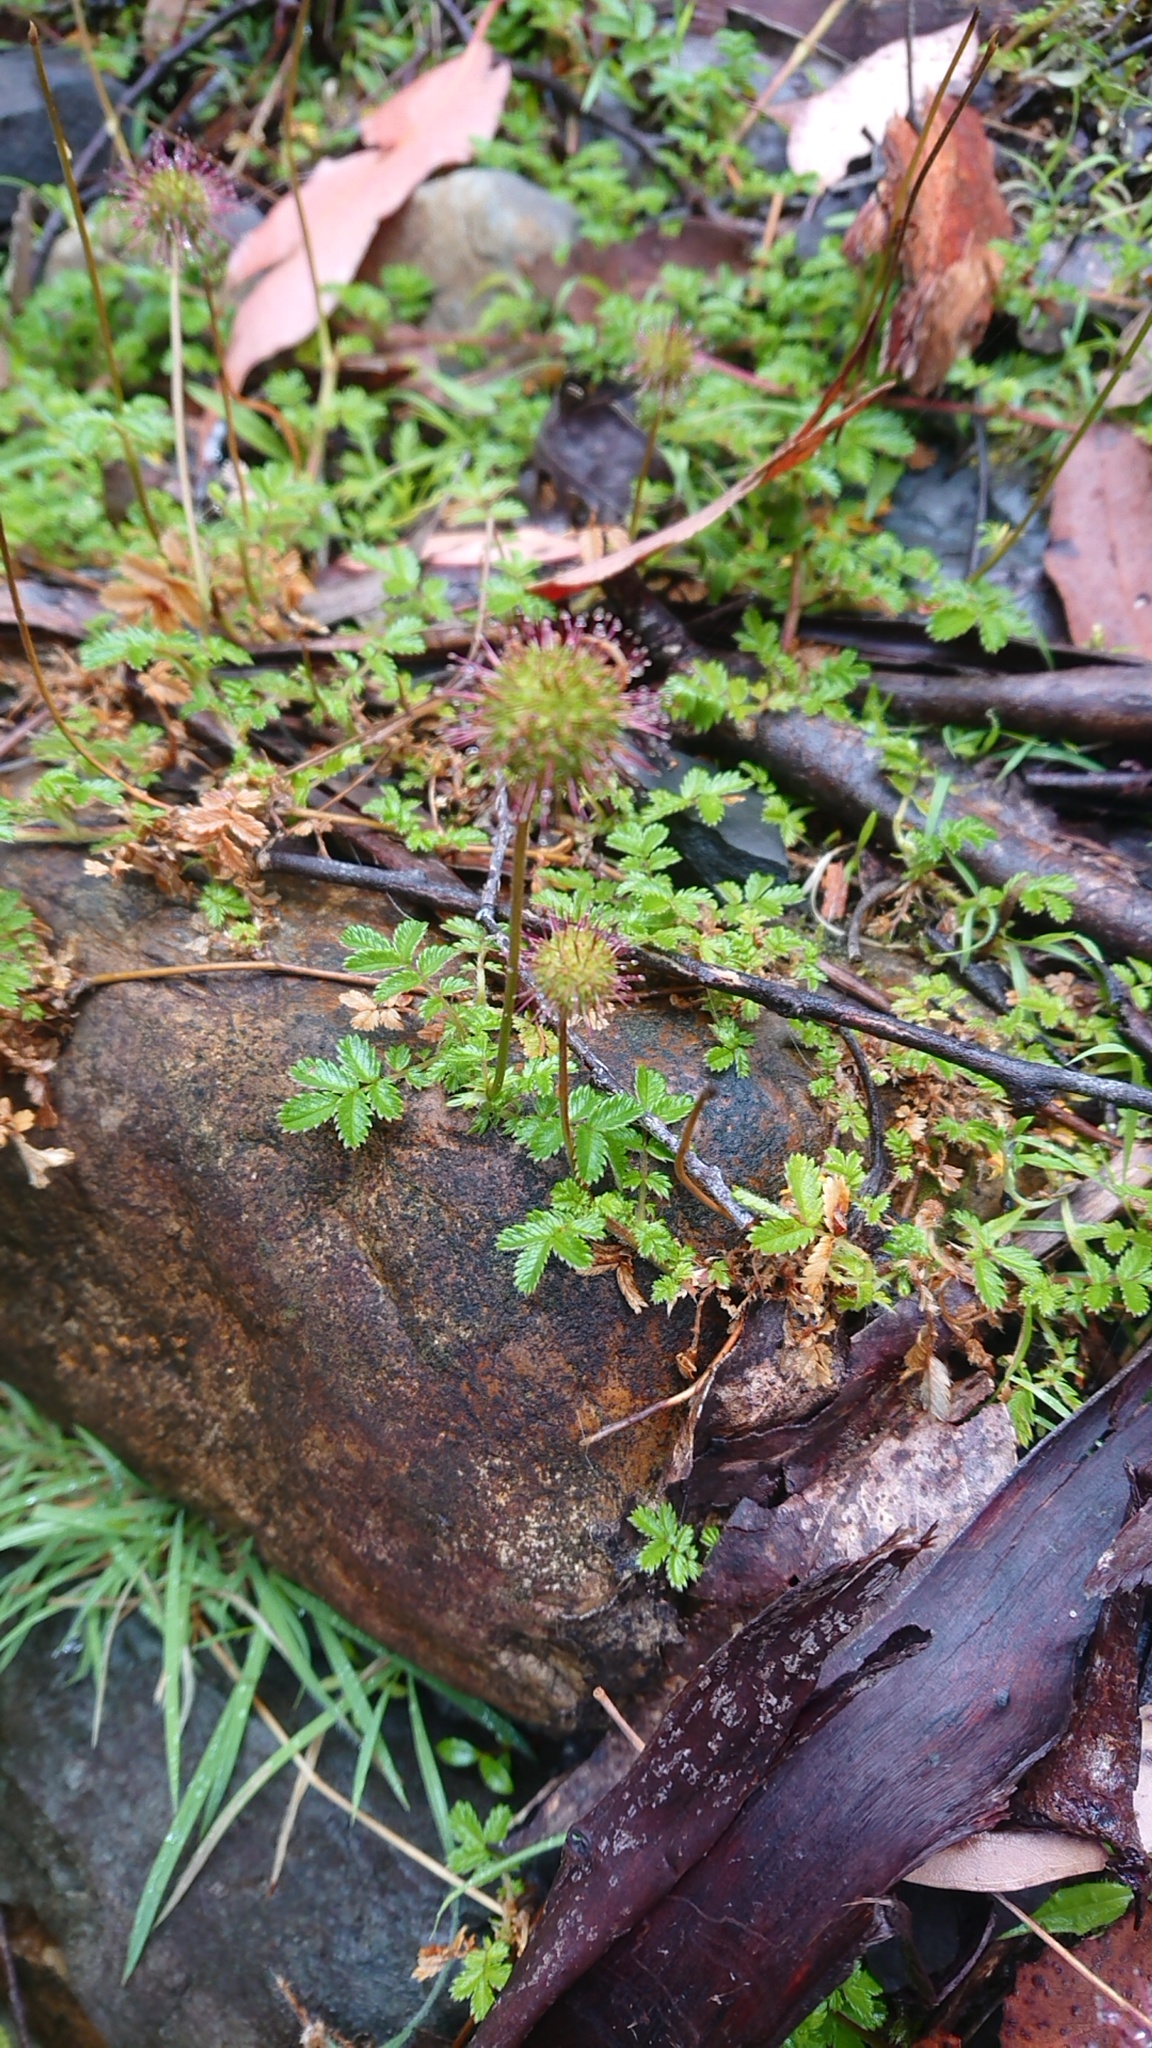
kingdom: Plantae
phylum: Tracheophyta
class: Magnoliopsida
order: Rosales
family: Rosaceae
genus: Acaena
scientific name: Acaena novae-zelandiae
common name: Pirri-pirri-bur
